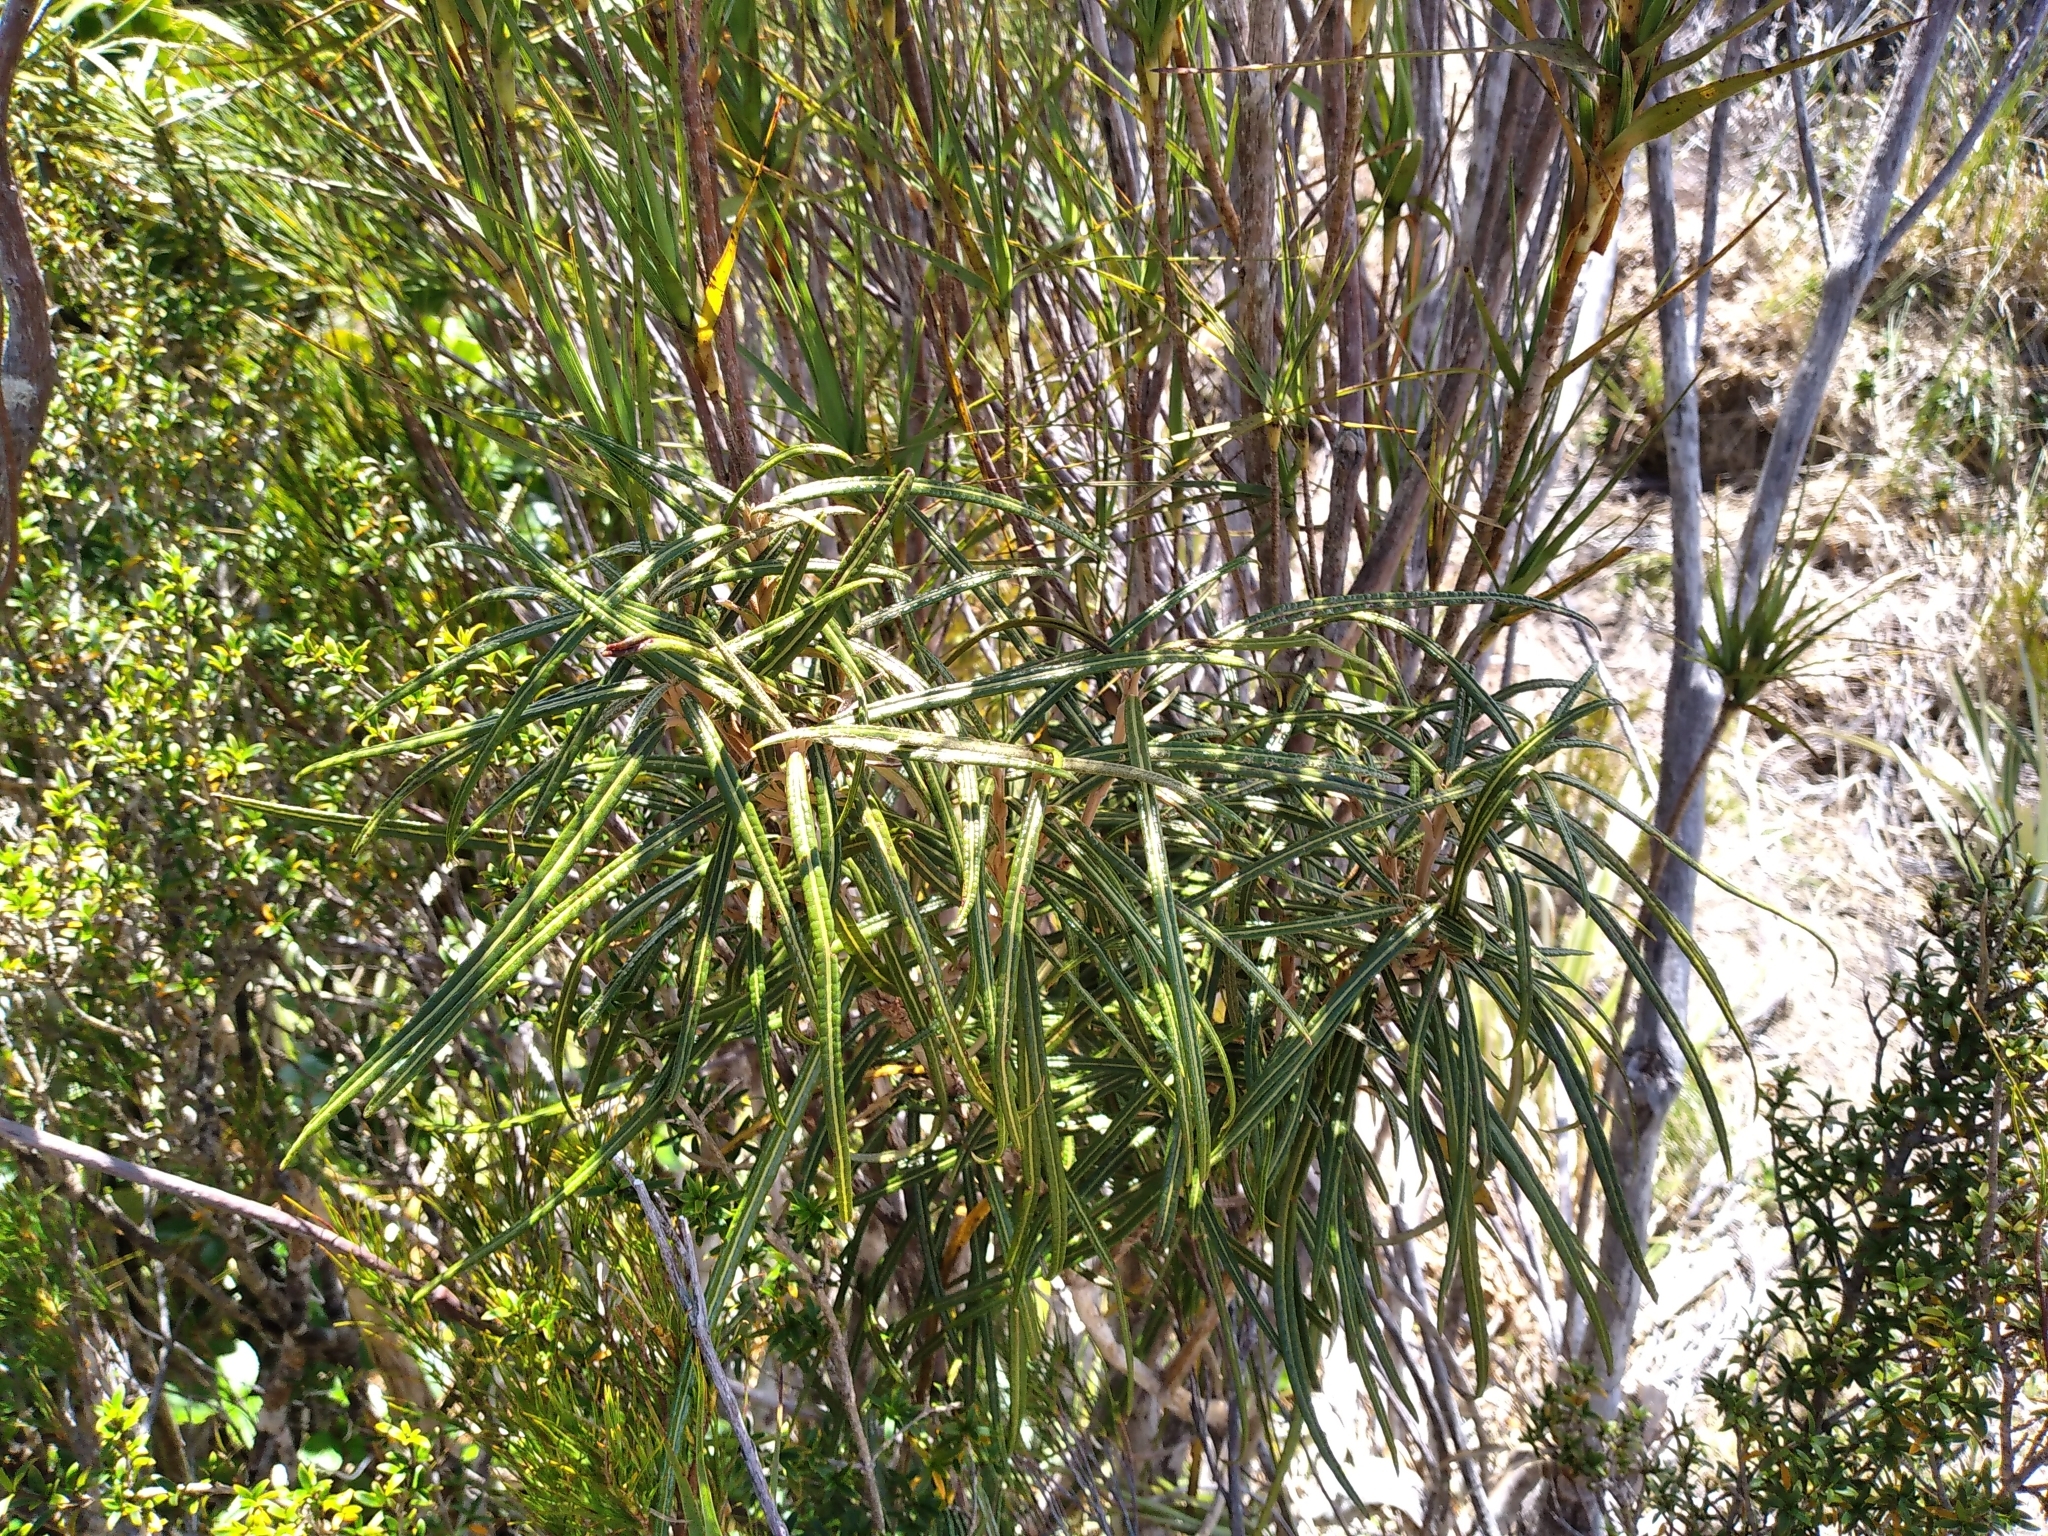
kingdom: Plantae
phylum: Tracheophyta
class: Magnoliopsida
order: Asterales
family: Asteraceae
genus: Olearia
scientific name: Olearia lacunosa
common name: Lancewood tree daisy
